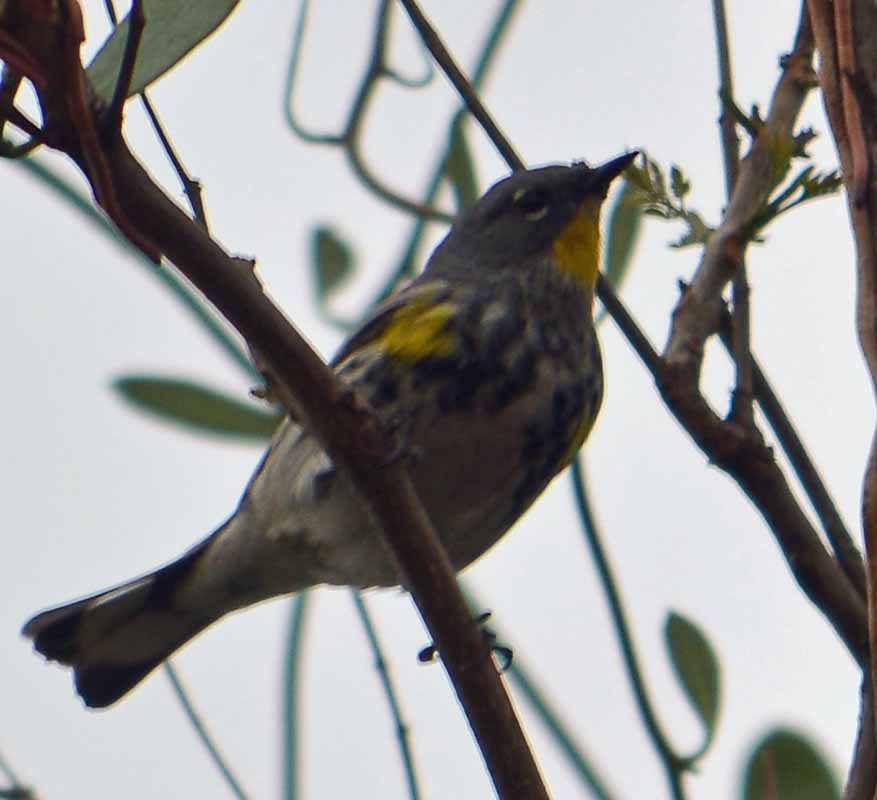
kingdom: Animalia
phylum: Chordata
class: Aves
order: Passeriformes
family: Parulidae
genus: Setophaga
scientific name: Setophaga auduboni
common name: Audubon's warbler
